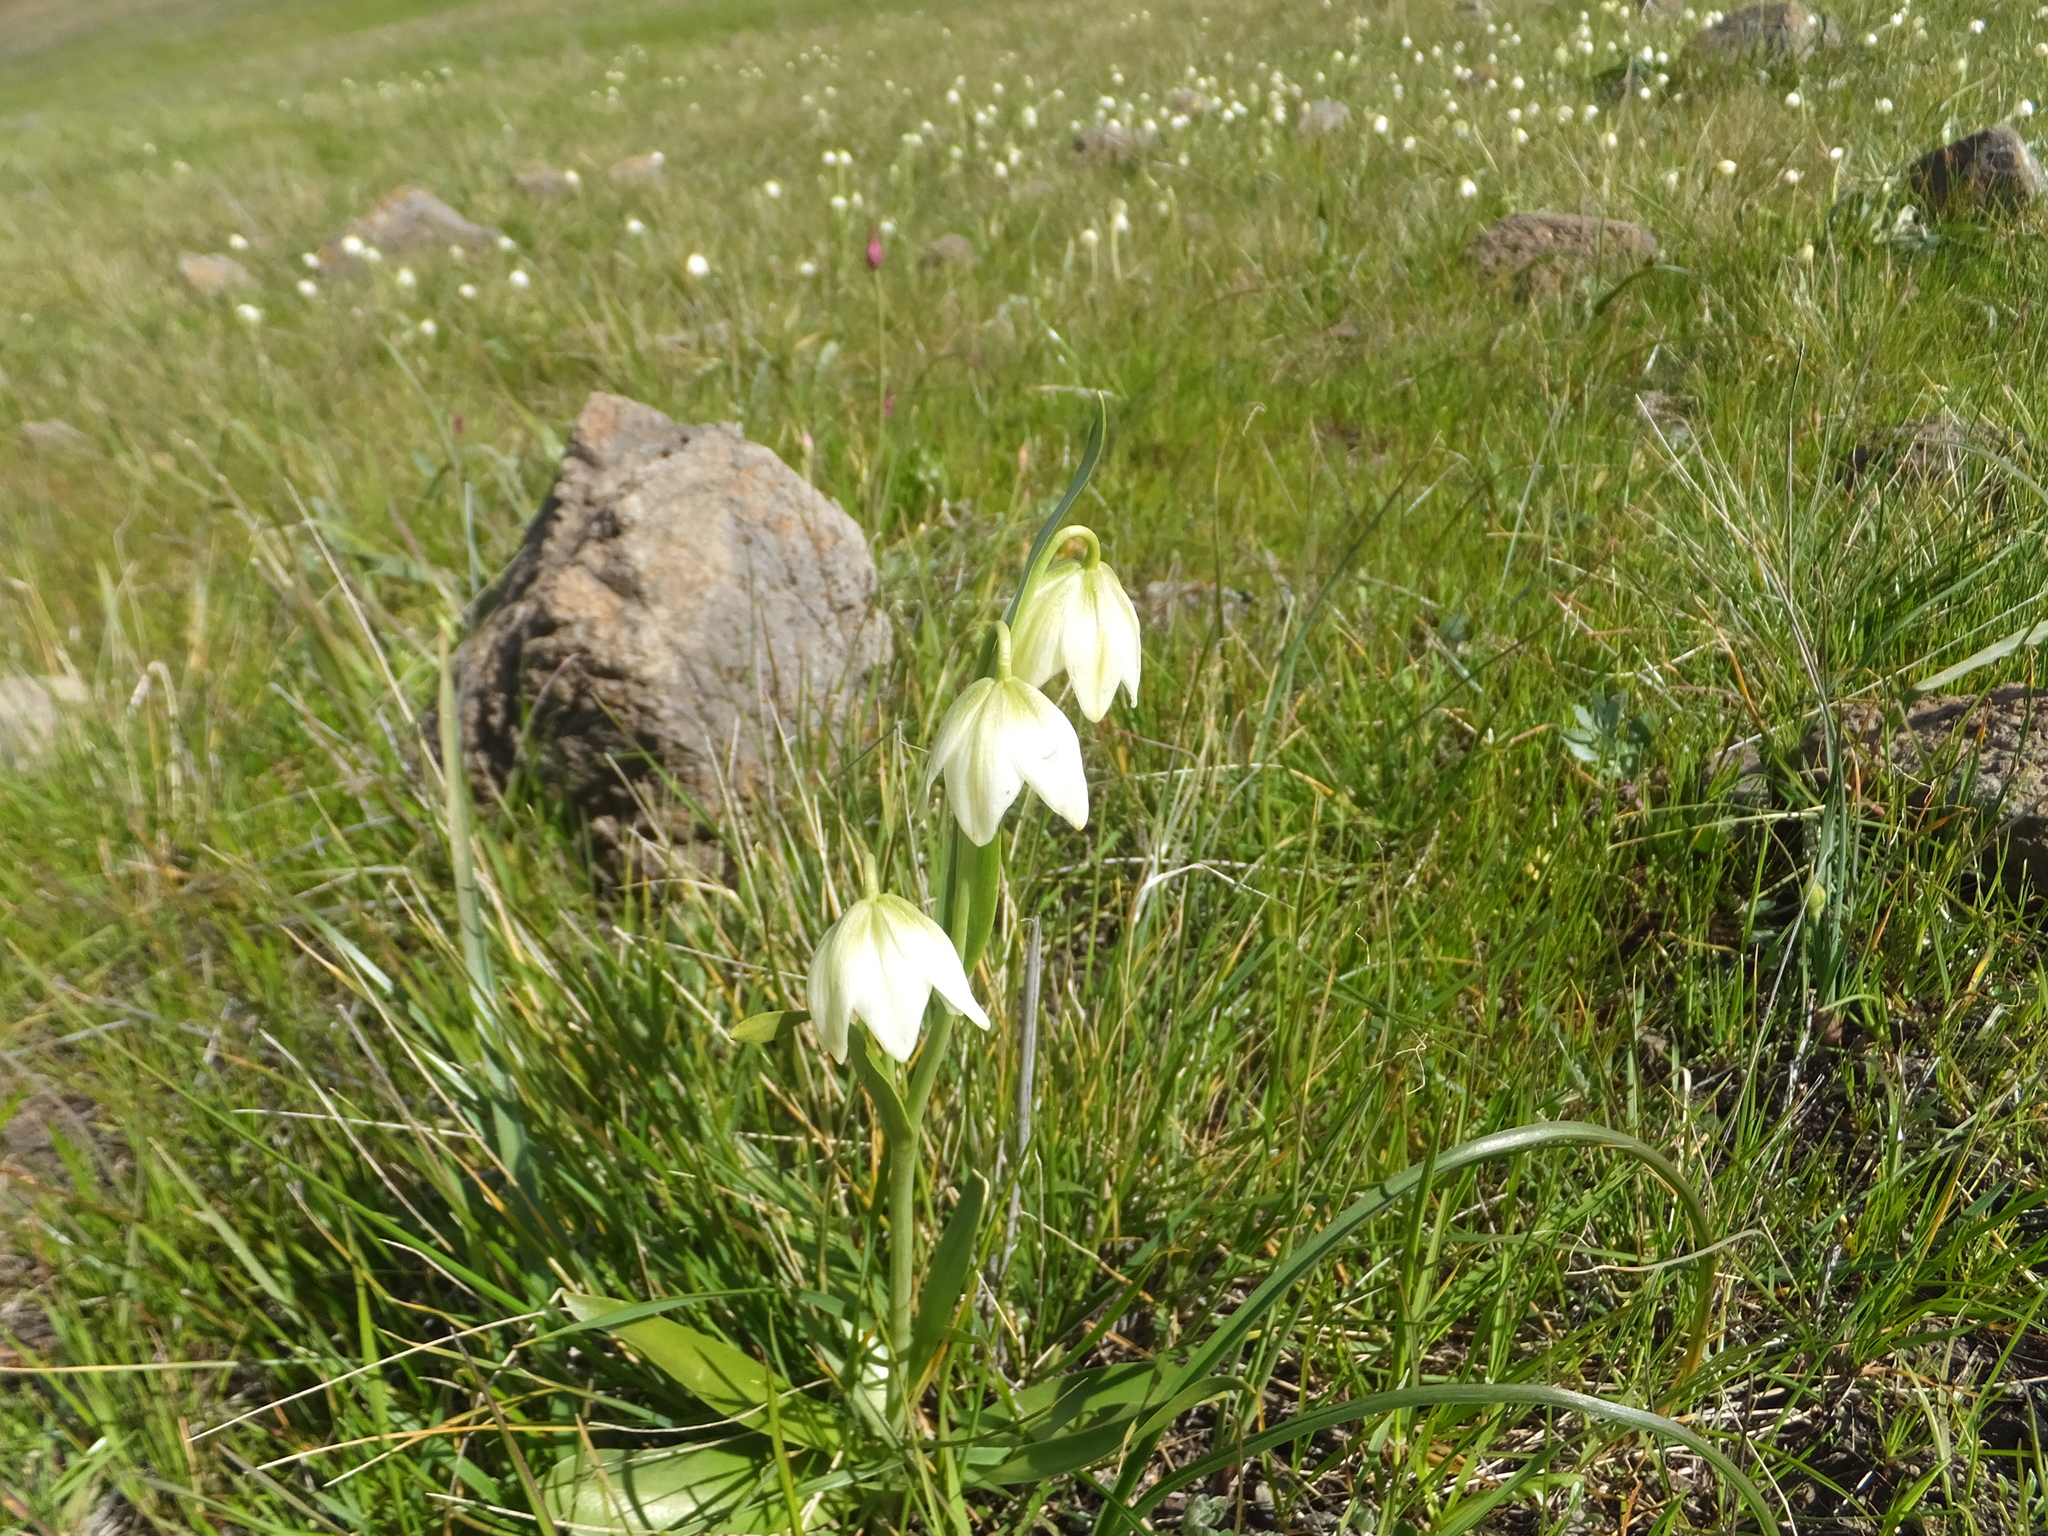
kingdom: Plantae
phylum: Tracheophyta
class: Liliopsida
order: Liliales
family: Liliaceae
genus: Fritillaria
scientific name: Fritillaria liliacea
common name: Fragrant fritillary
